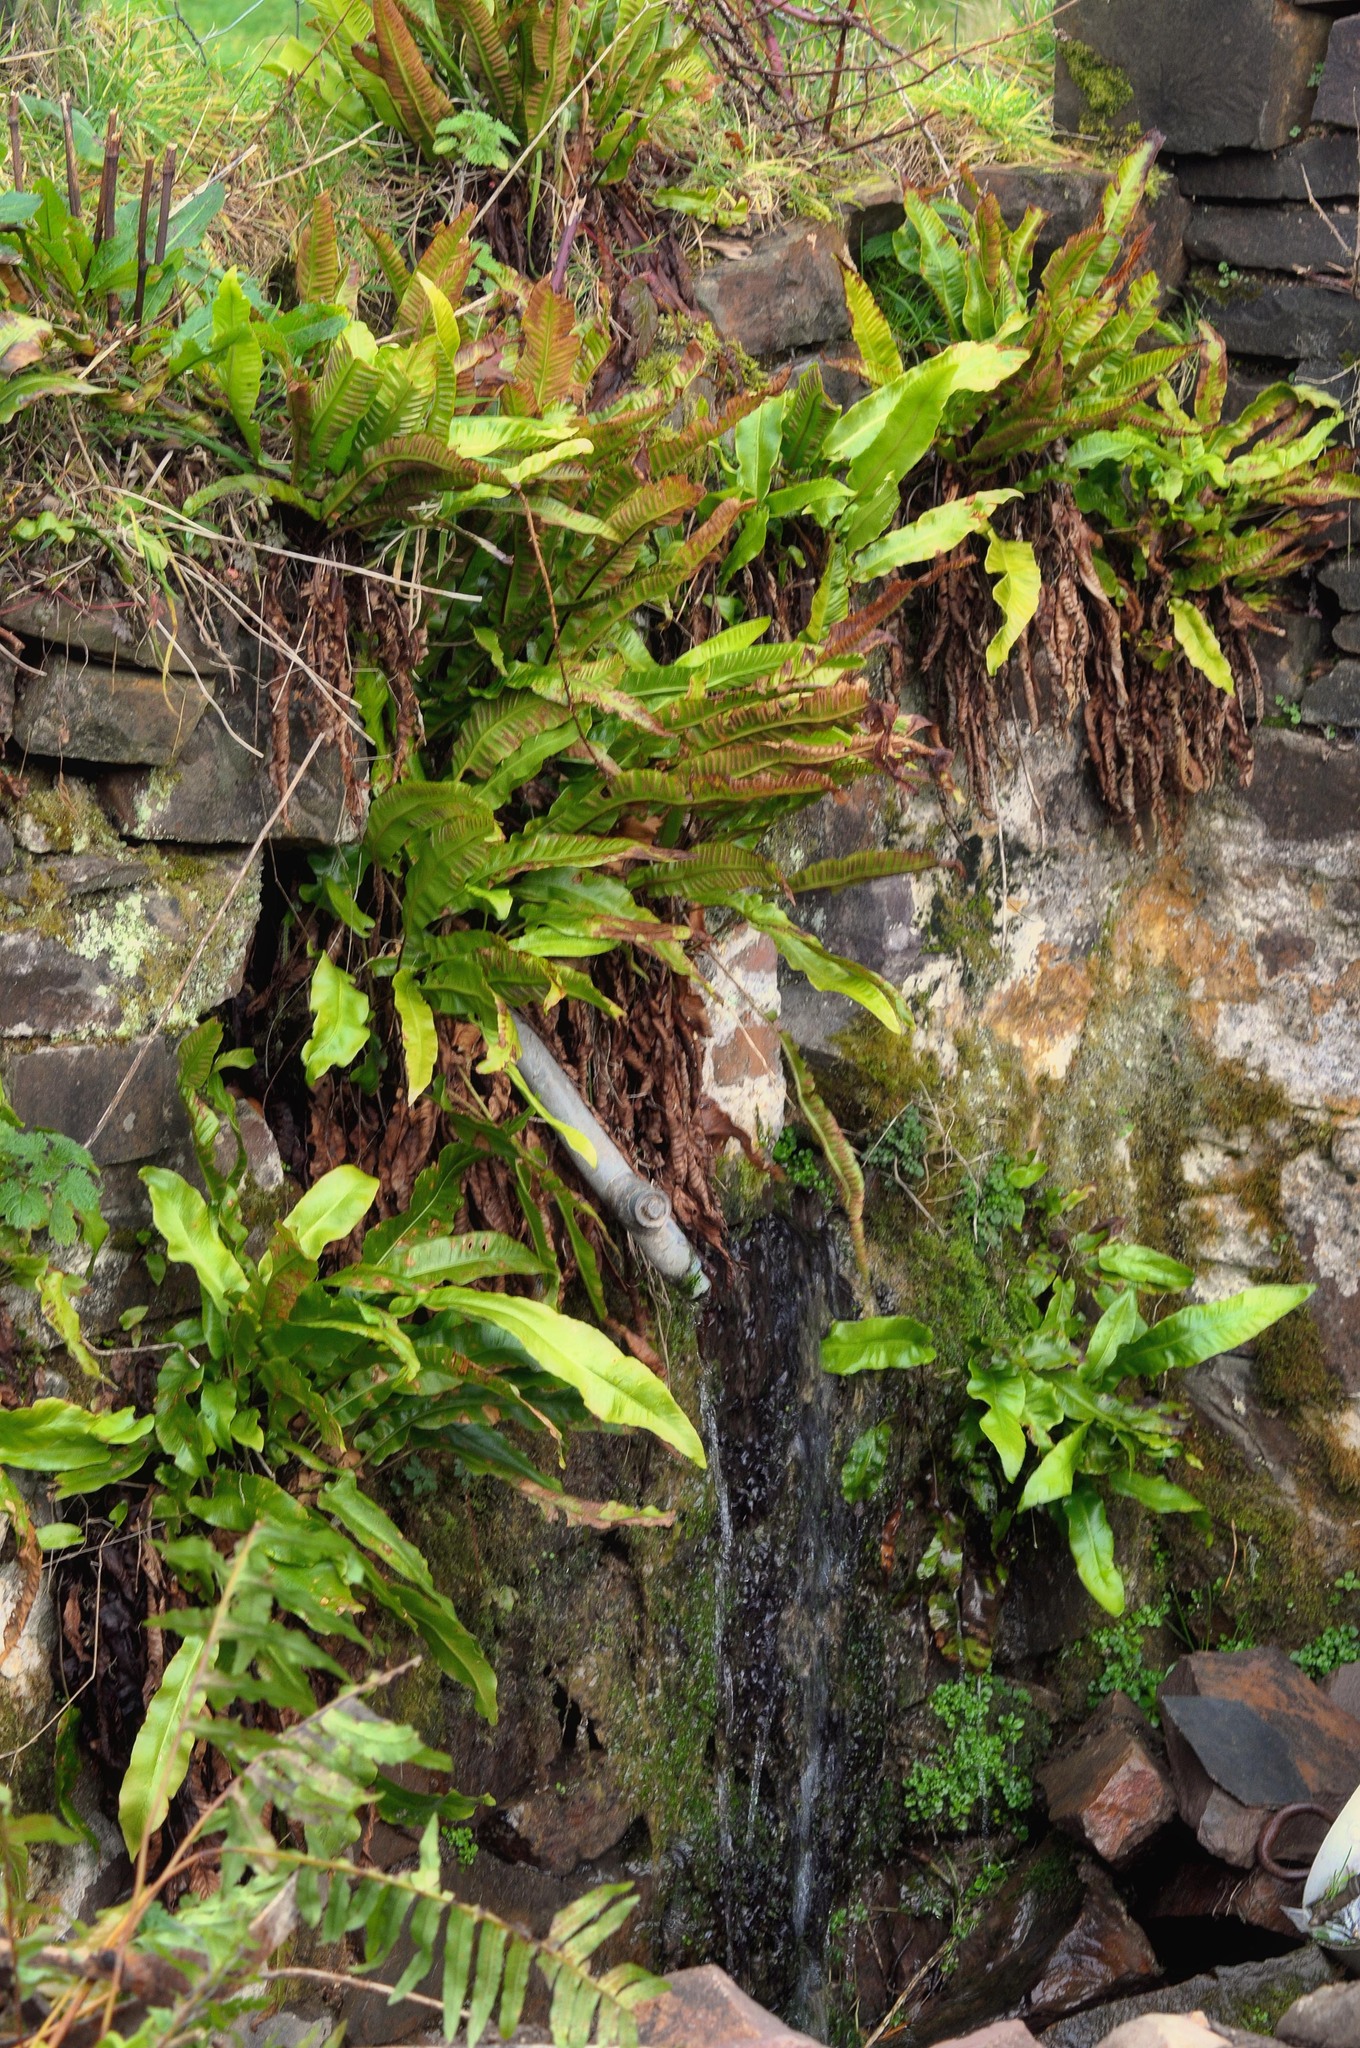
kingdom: Plantae
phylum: Tracheophyta
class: Polypodiopsida
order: Polypodiales
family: Aspleniaceae
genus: Asplenium
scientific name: Asplenium scolopendrium
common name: Hart's-tongue fern
